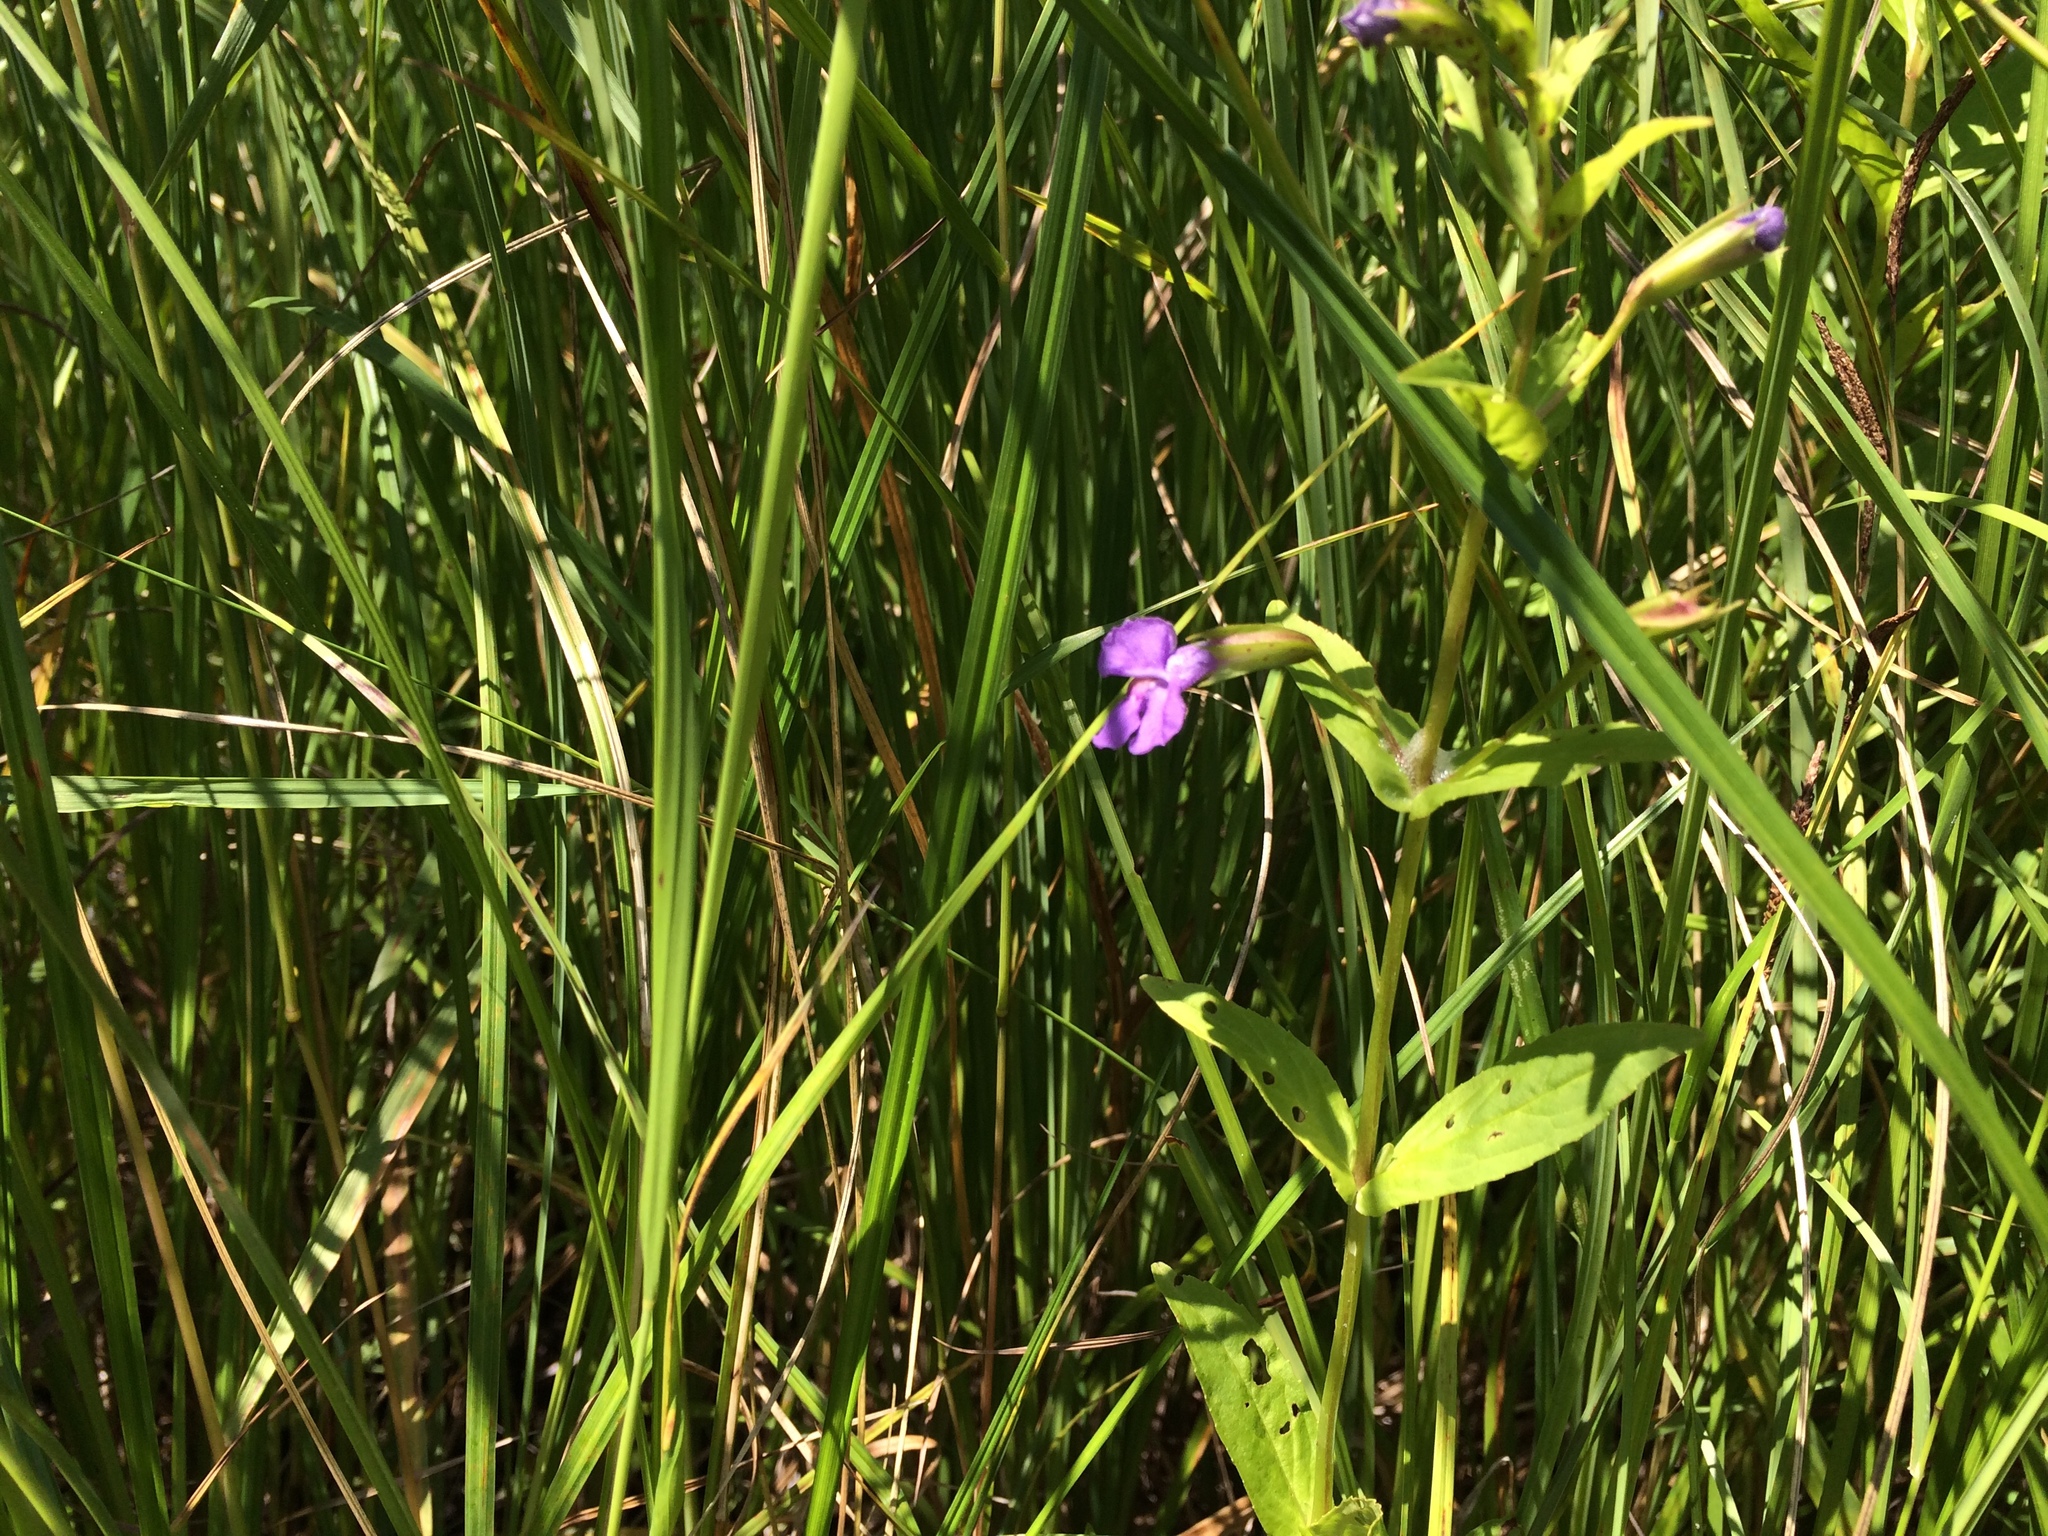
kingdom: Plantae
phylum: Tracheophyta
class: Magnoliopsida
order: Lamiales
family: Phrymaceae
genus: Mimulus
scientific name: Mimulus ringens
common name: Allegheny monkeyflower
